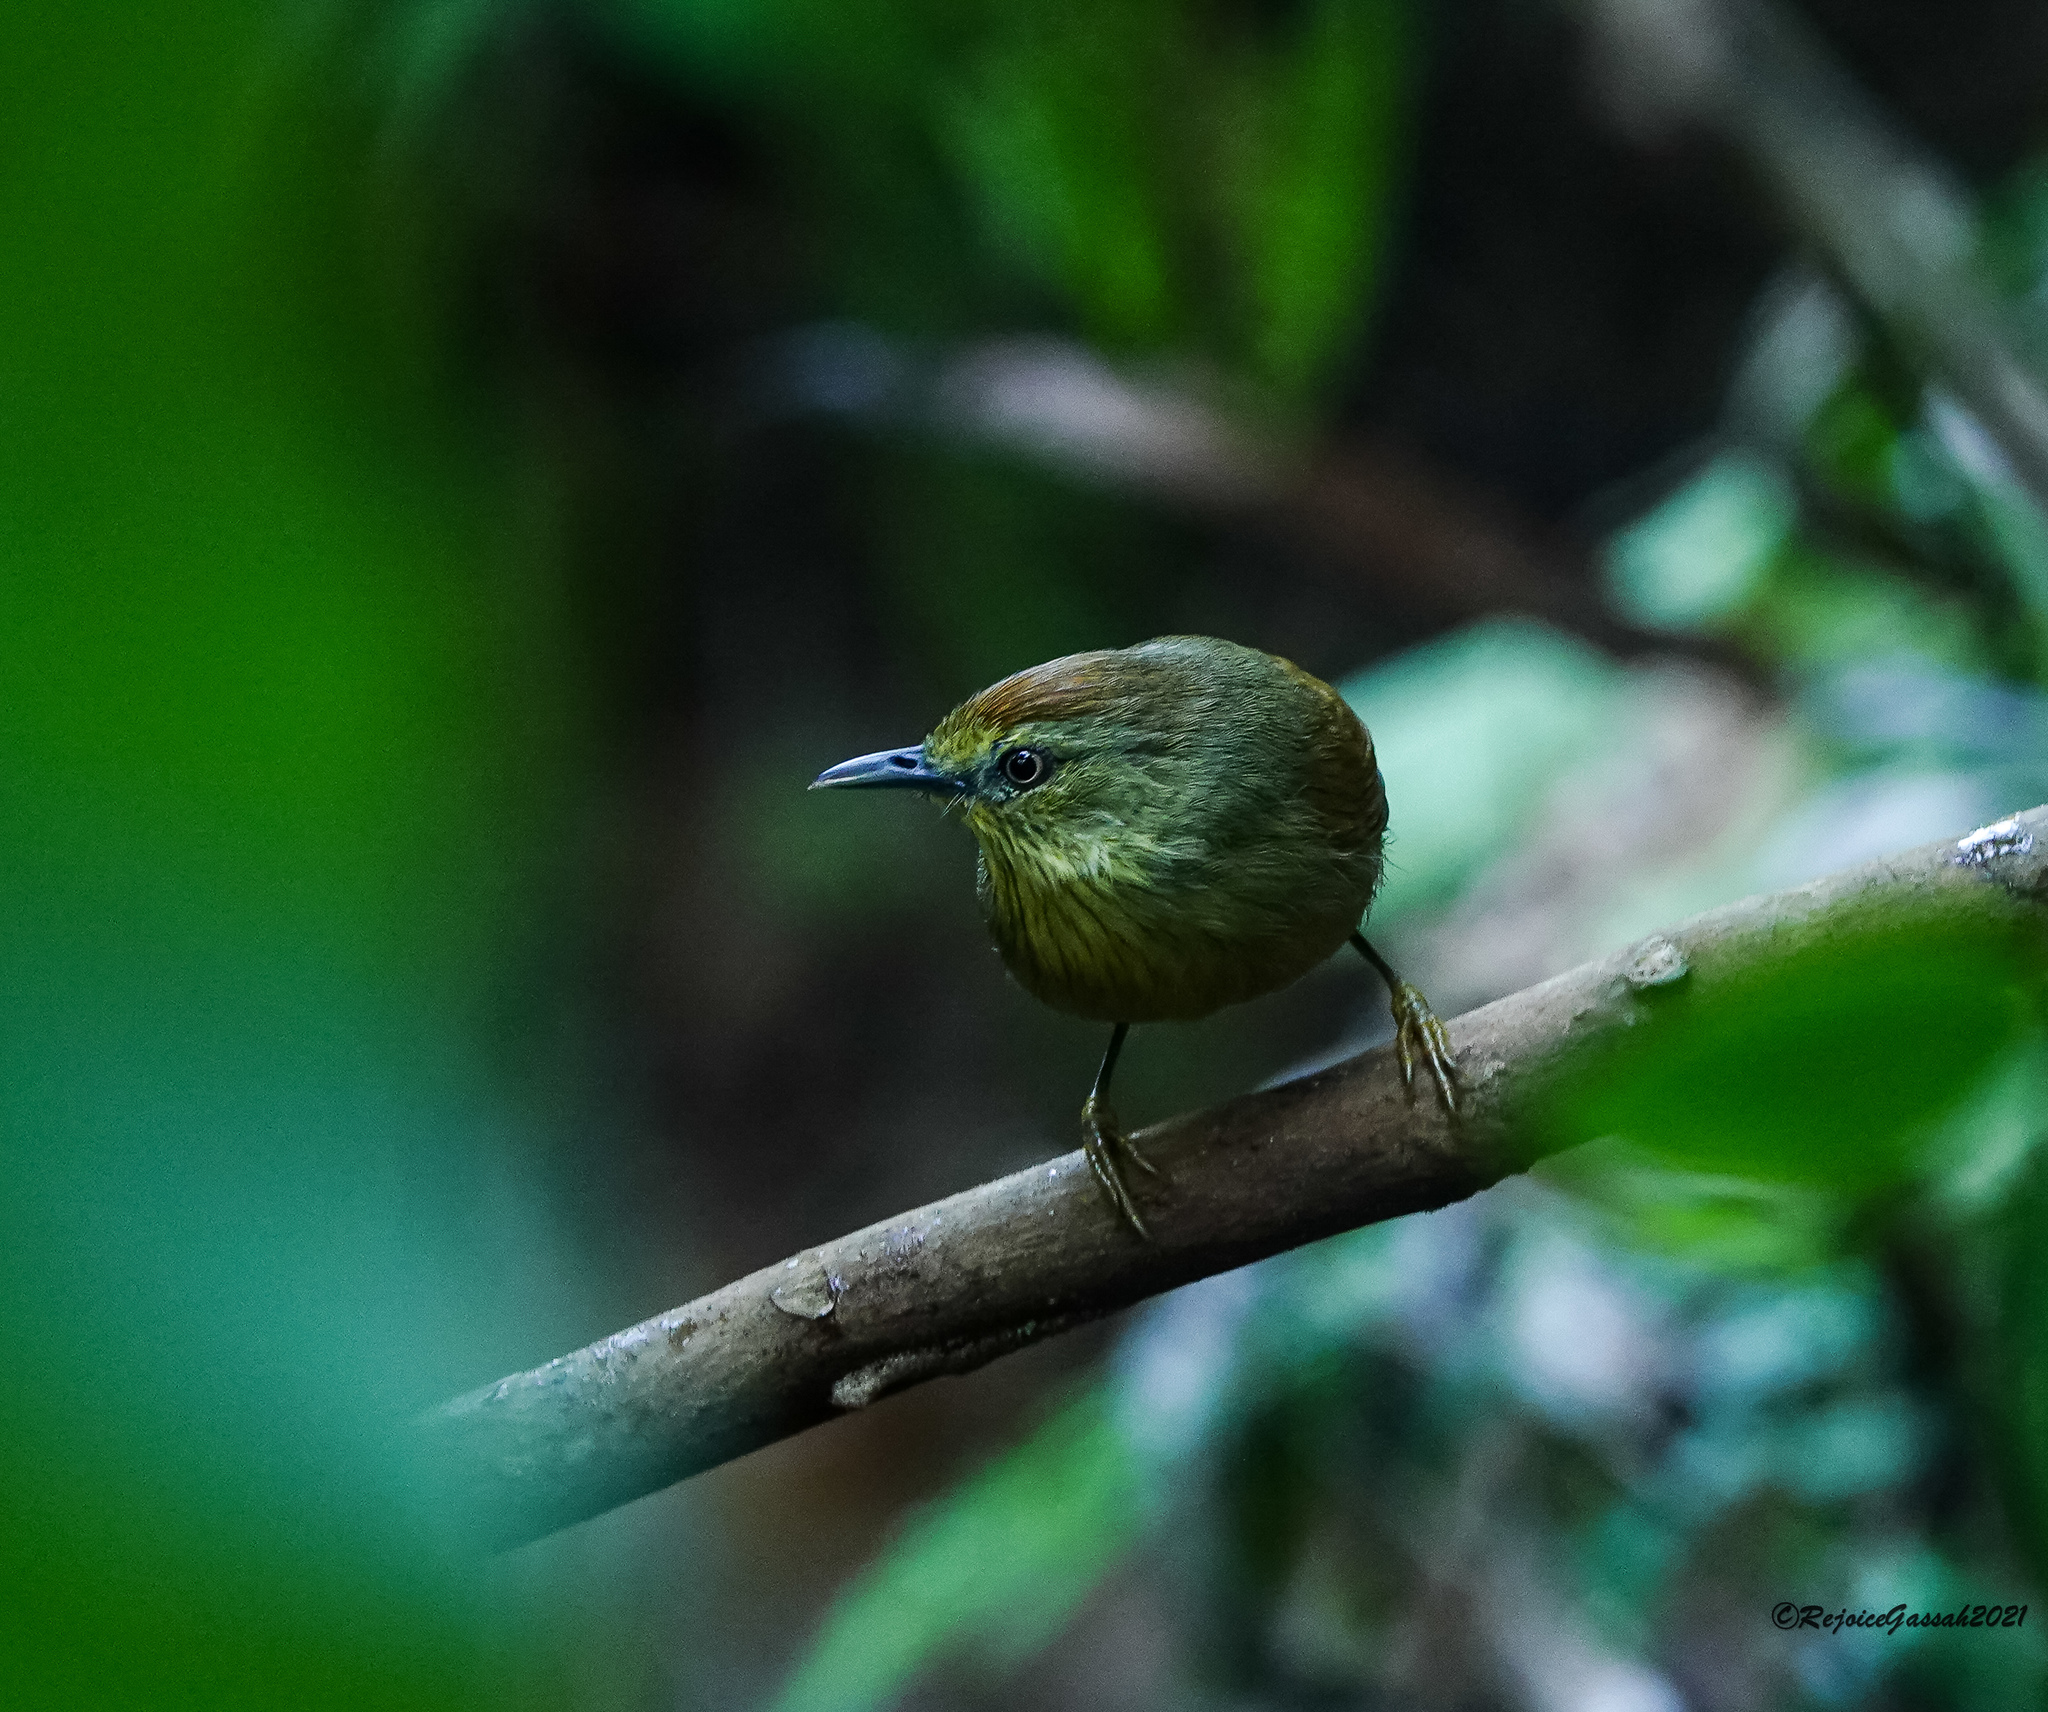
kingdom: Animalia
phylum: Chordata
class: Aves
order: Passeriformes
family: Timaliidae
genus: Macronus
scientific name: Macronus gularis
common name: Striped tit-babbler
